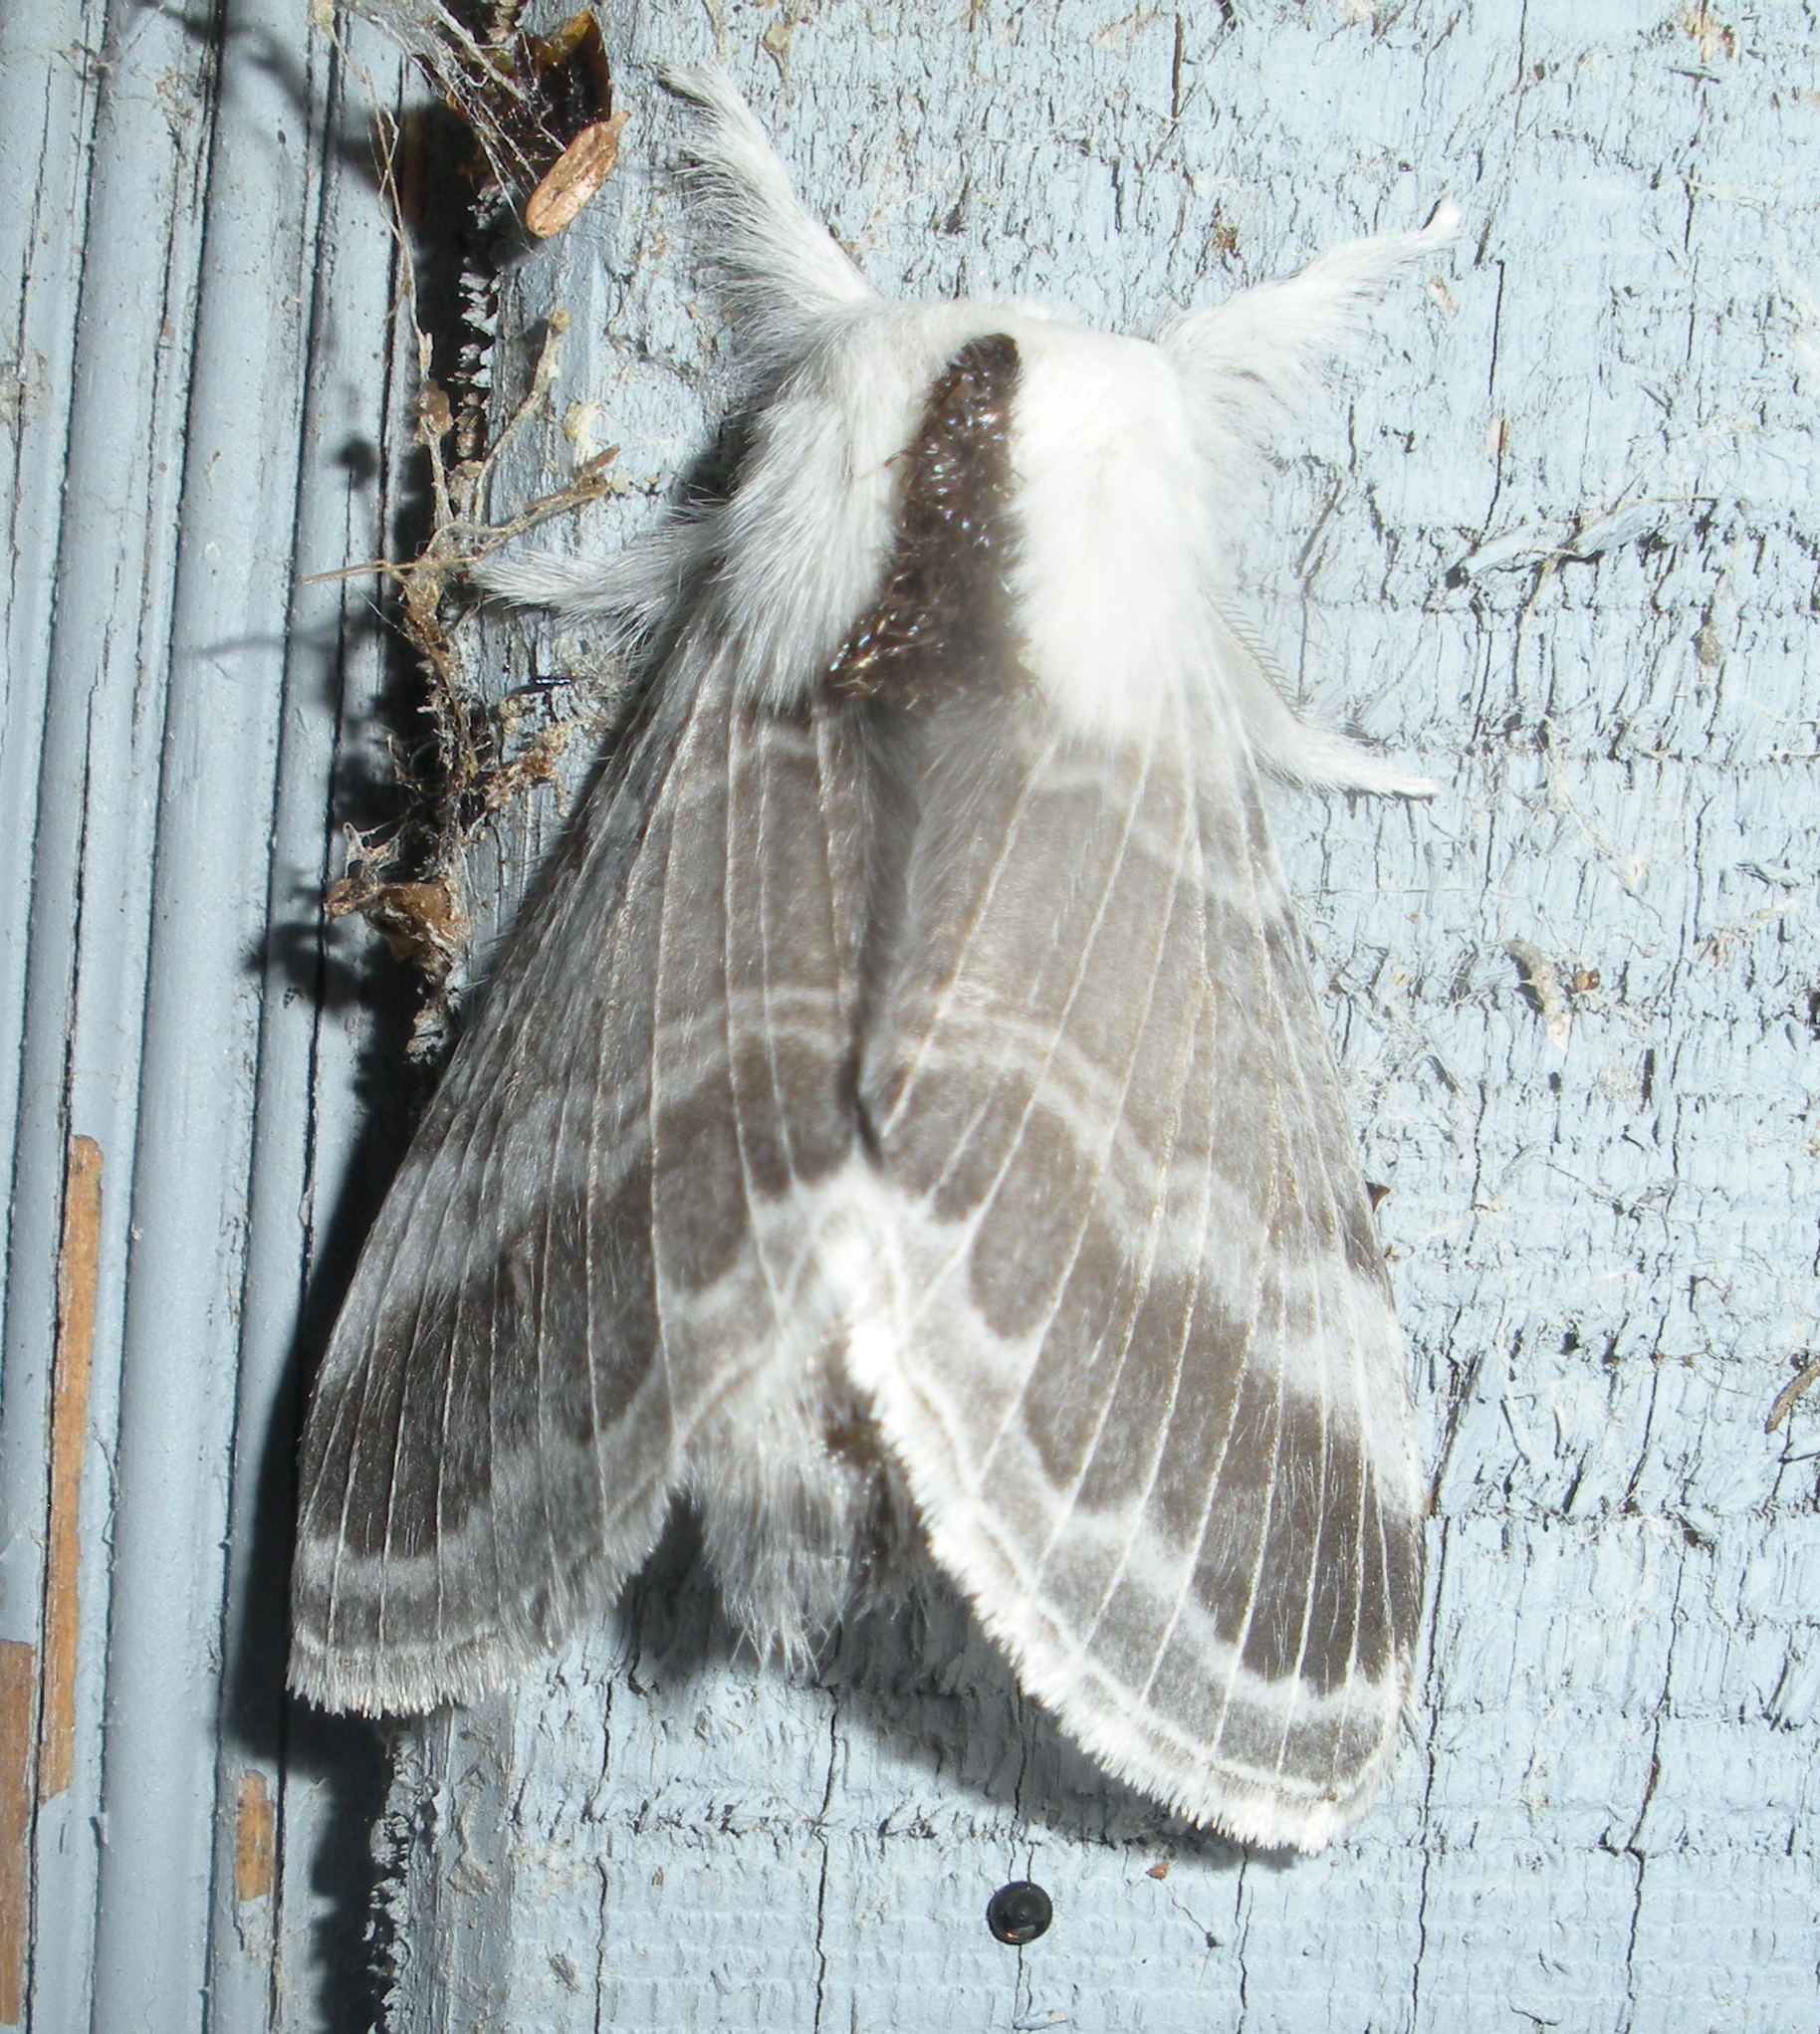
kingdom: Animalia
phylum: Arthropoda
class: Insecta
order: Lepidoptera
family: Lasiocampidae
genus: Tolype
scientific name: Tolype velleda
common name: Large tolype moth
